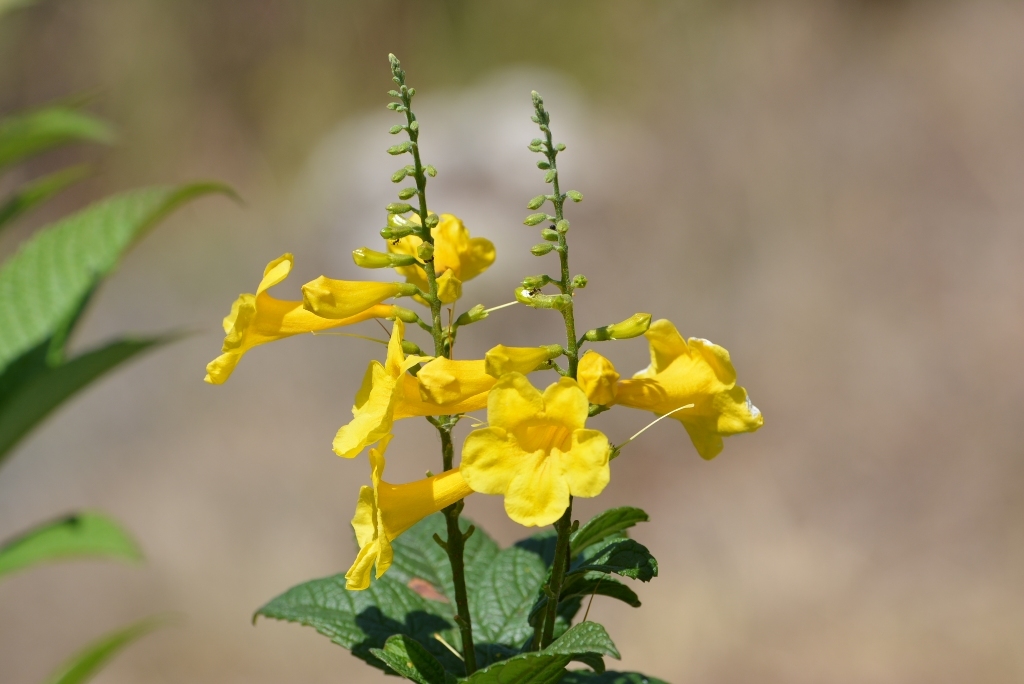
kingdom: Plantae
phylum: Tracheophyta
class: Magnoliopsida
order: Lamiales
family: Bignoniaceae
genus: Tecoma
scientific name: Tecoma stans
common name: Yellow trumpetbush
